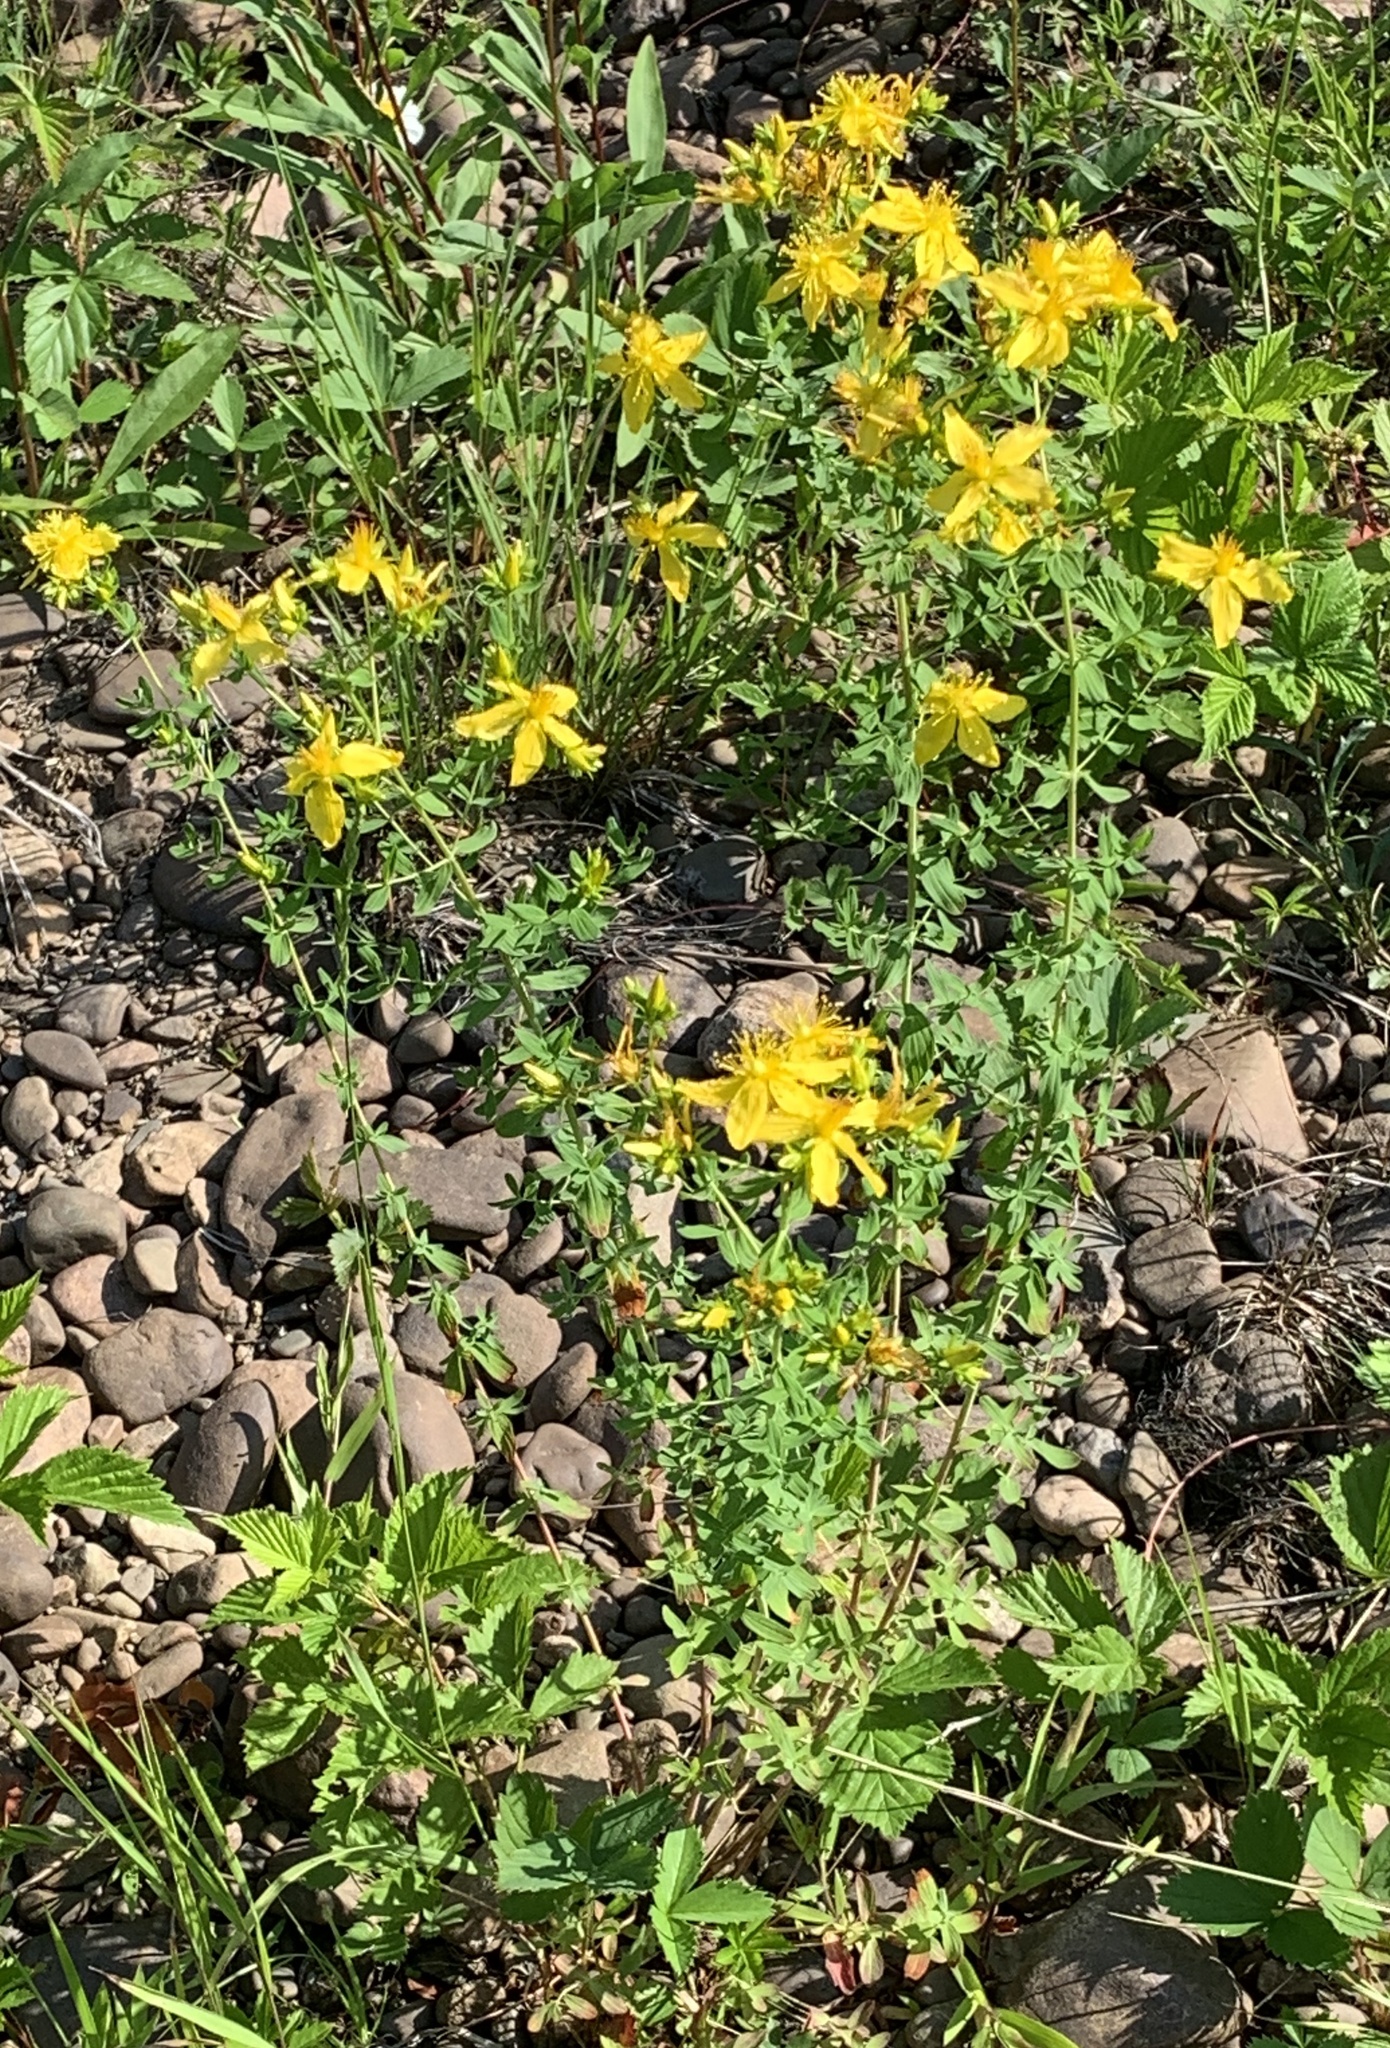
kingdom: Plantae
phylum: Tracheophyta
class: Magnoliopsida
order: Malpighiales
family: Hypericaceae
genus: Hypericum
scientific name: Hypericum perforatum
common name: Common st. johnswort
